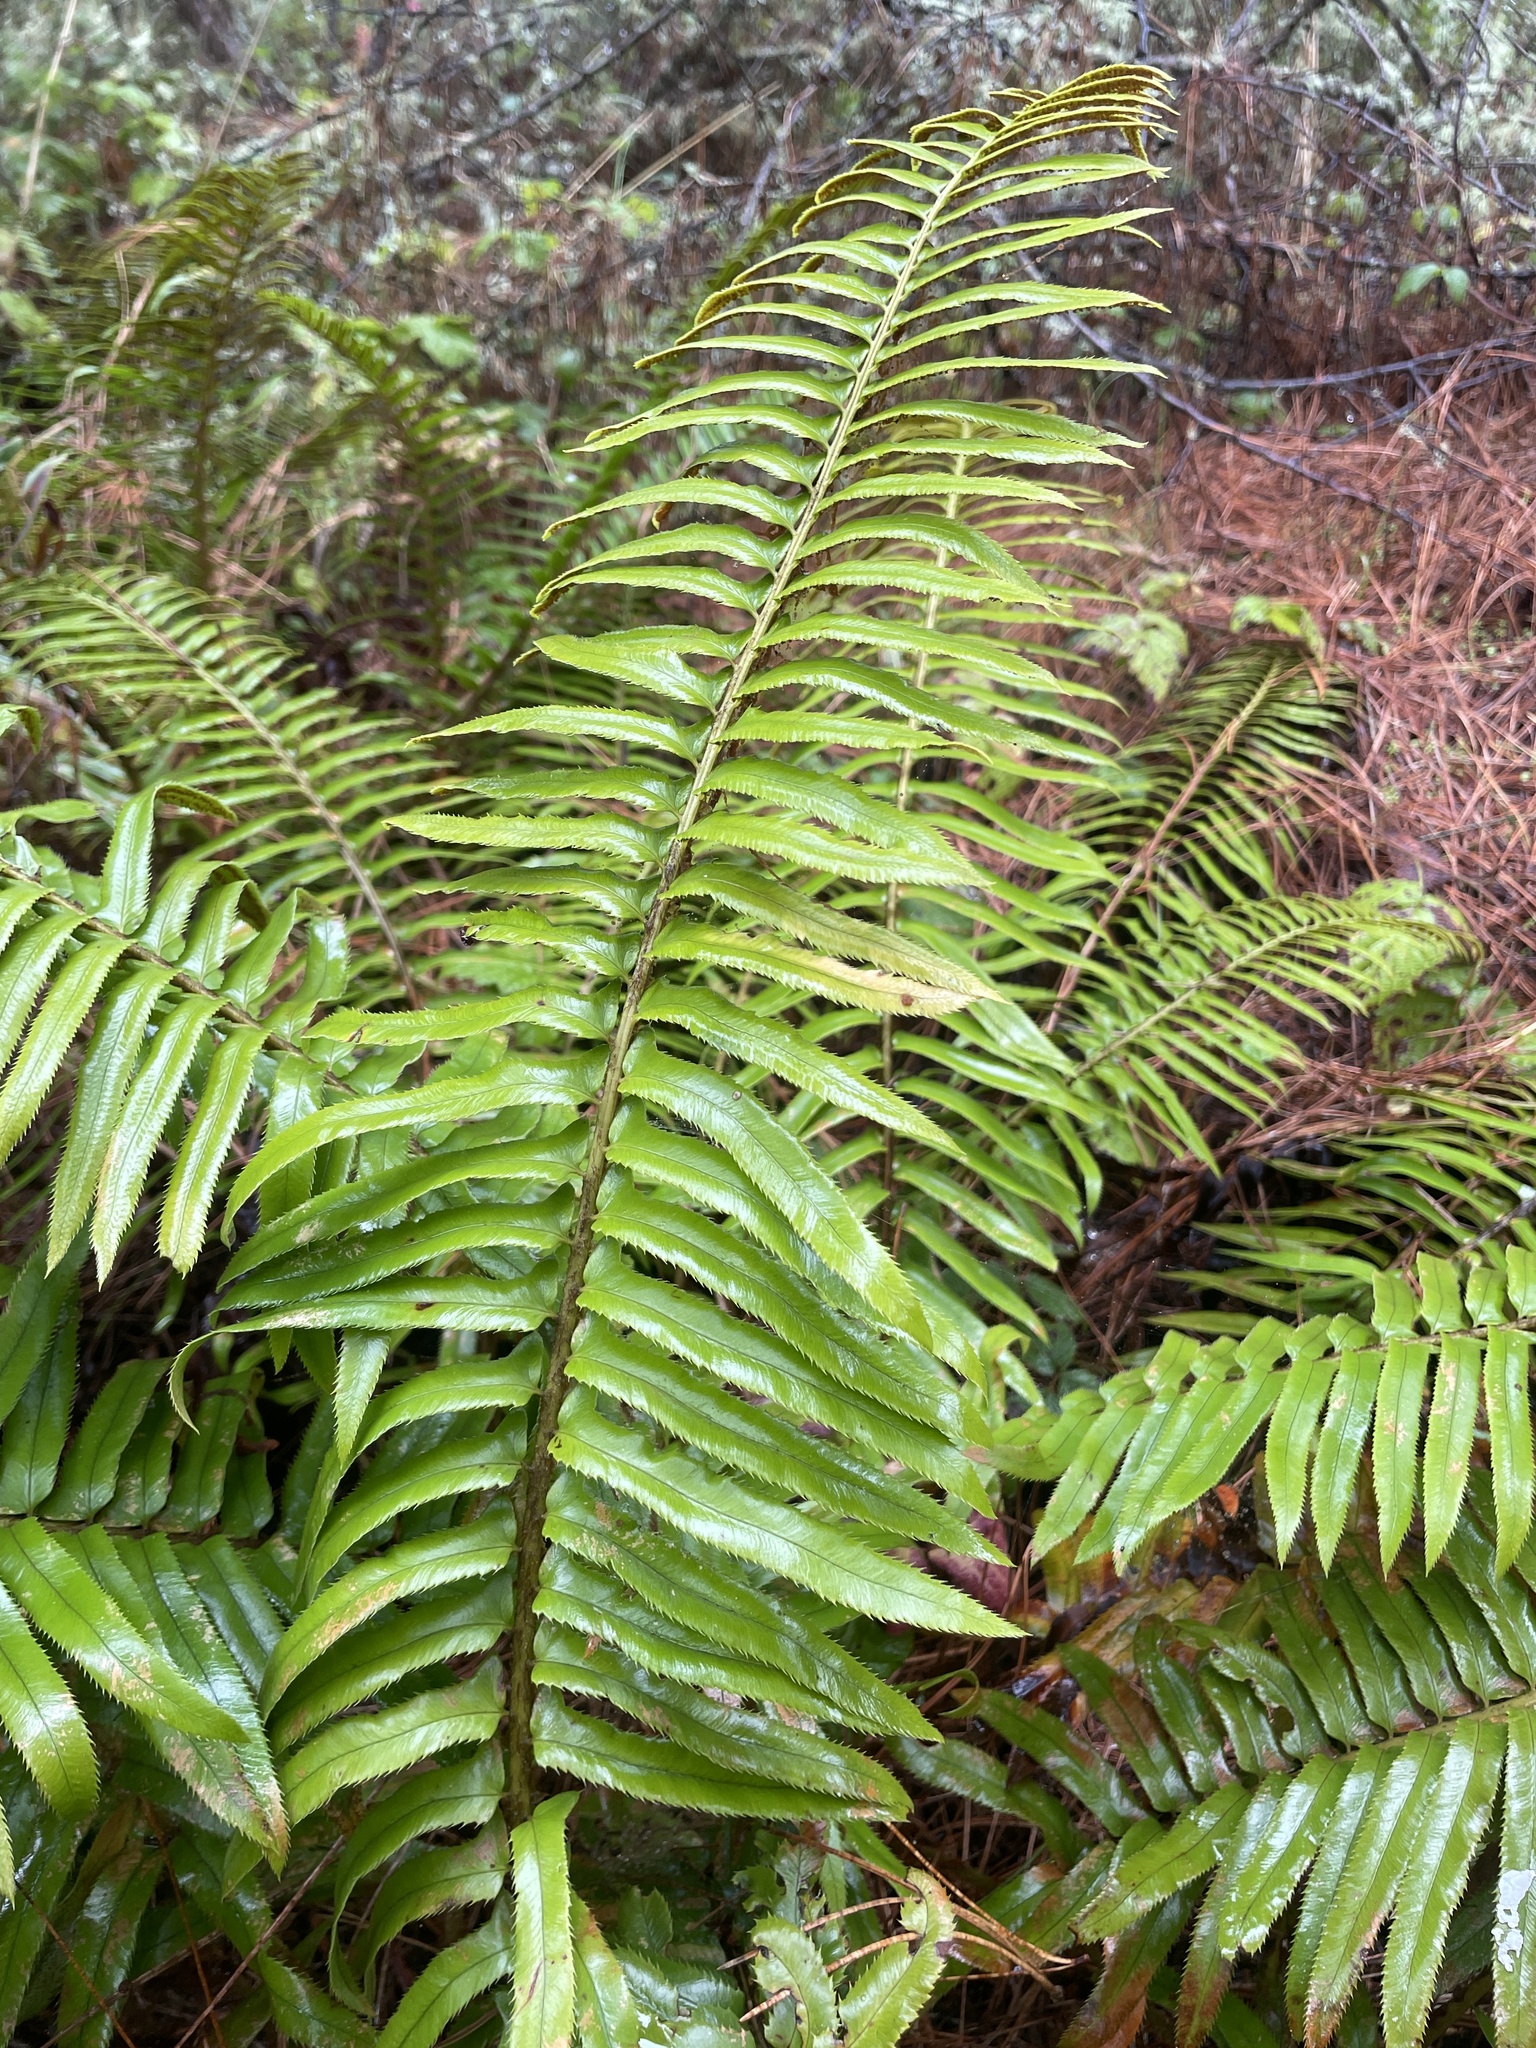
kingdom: Plantae
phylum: Tracheophyta
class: Polypodiopsida
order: Polypodiales
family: Dryopteridaceae
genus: Polystichum
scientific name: Polystichum munitum
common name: Western sword-fern
